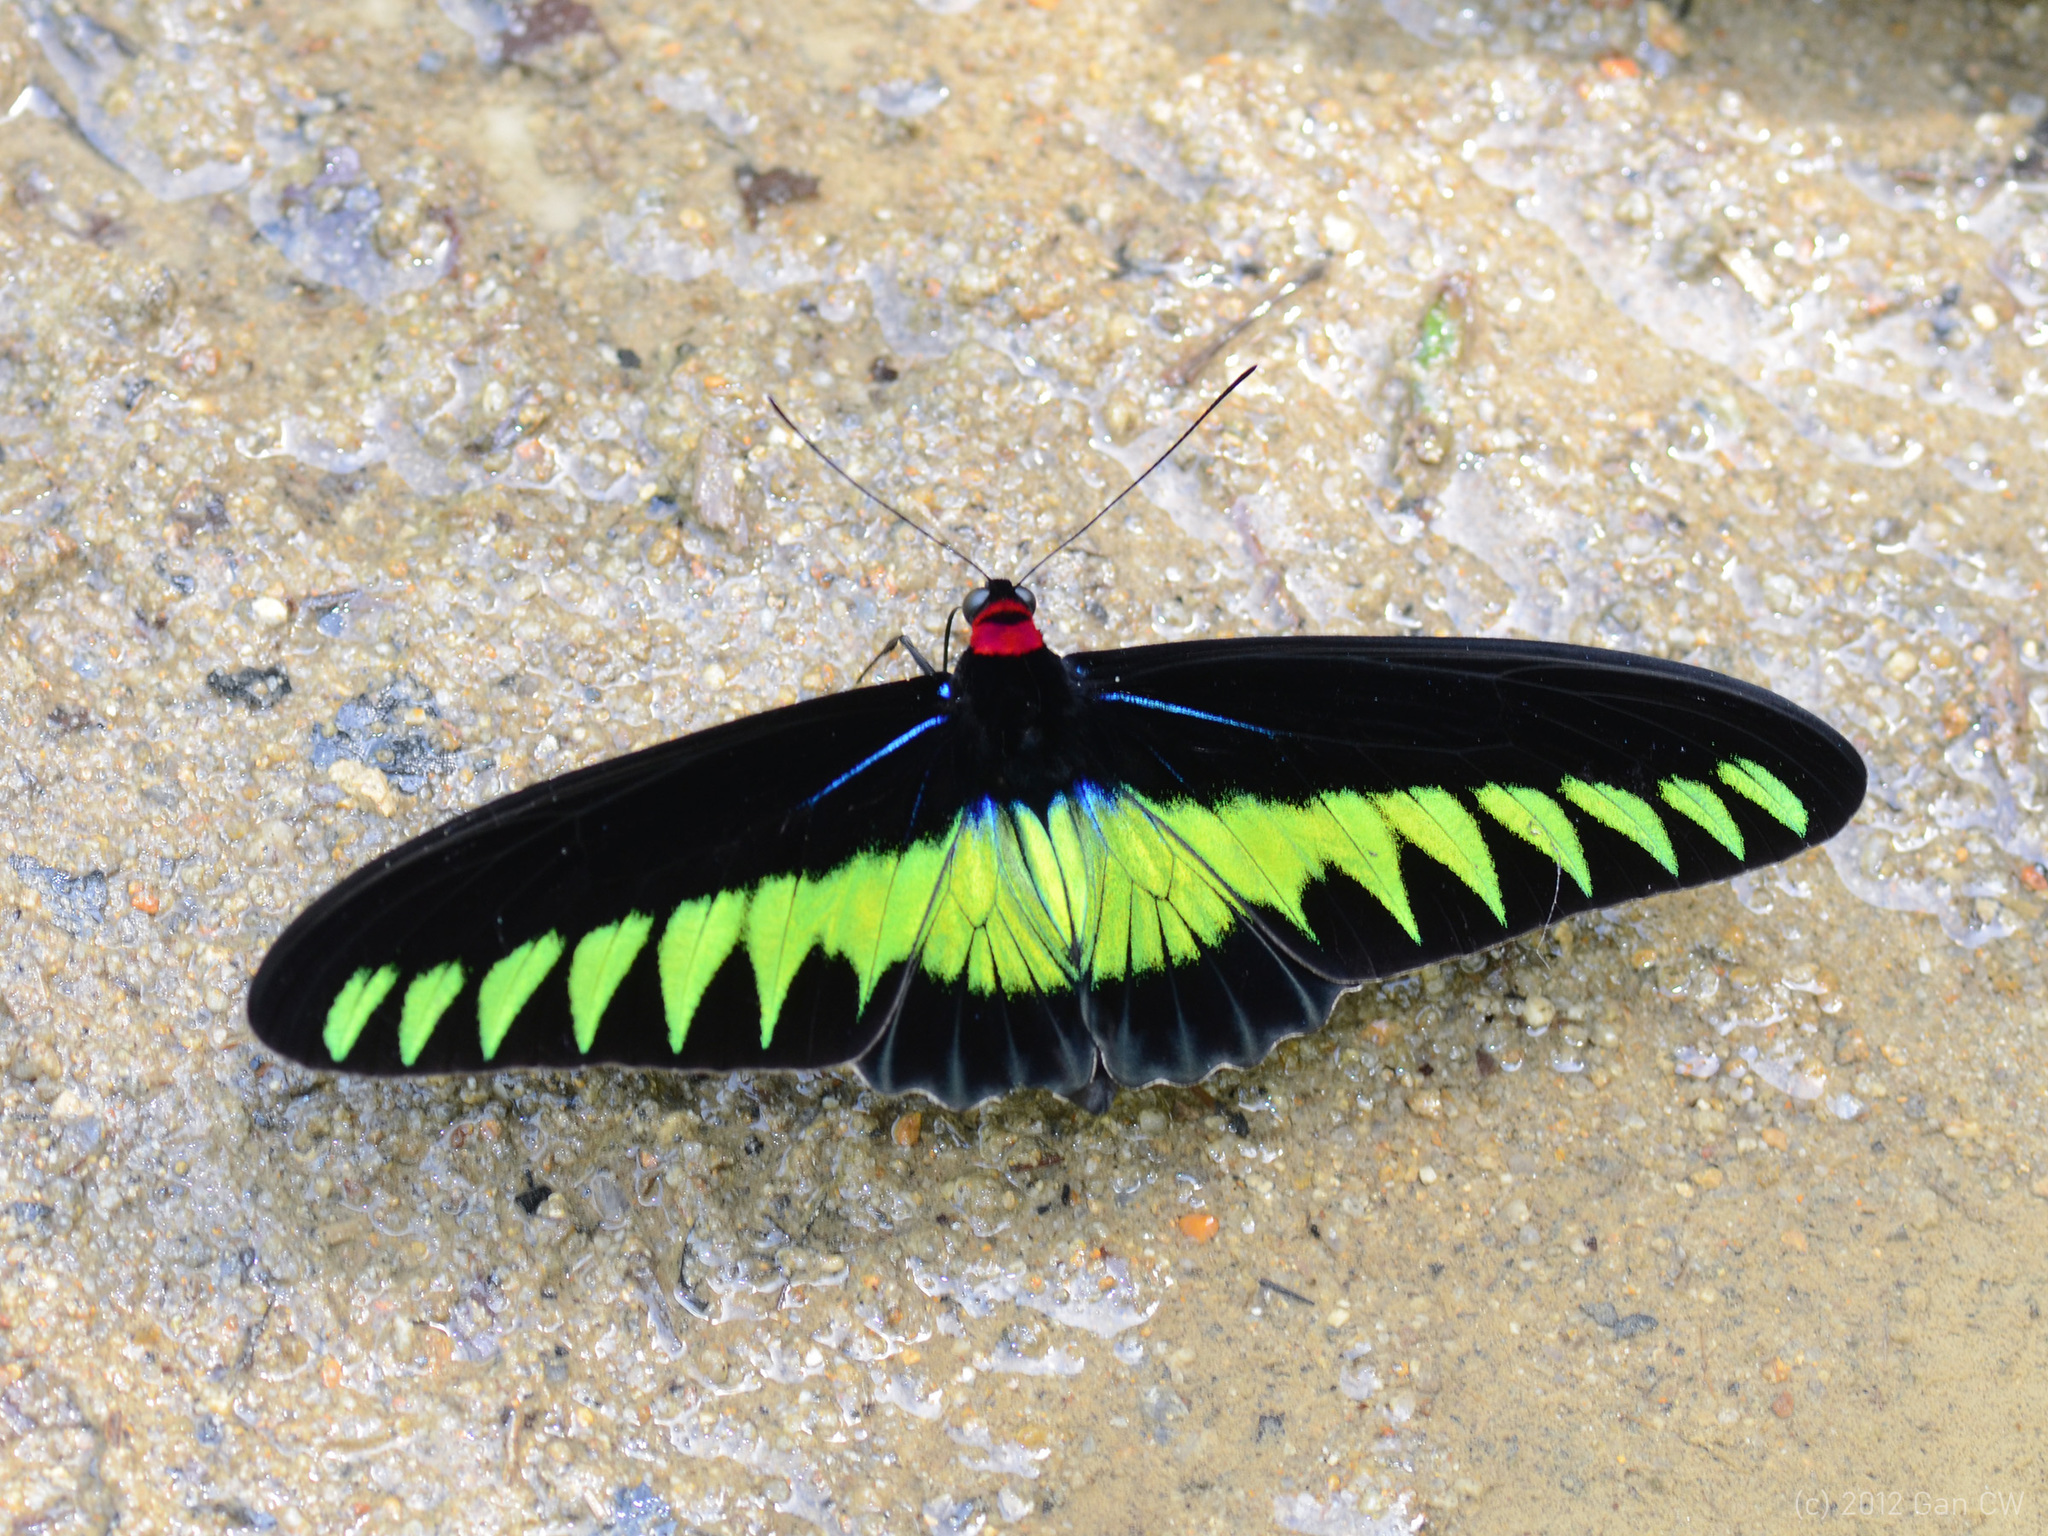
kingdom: Animalia
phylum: Arthropoda
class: Insecta
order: Lepidoptera
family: Papilionidae
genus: Trogonoptera
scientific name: Trogonoptera brookiana
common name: Raja brooke's birdwing
